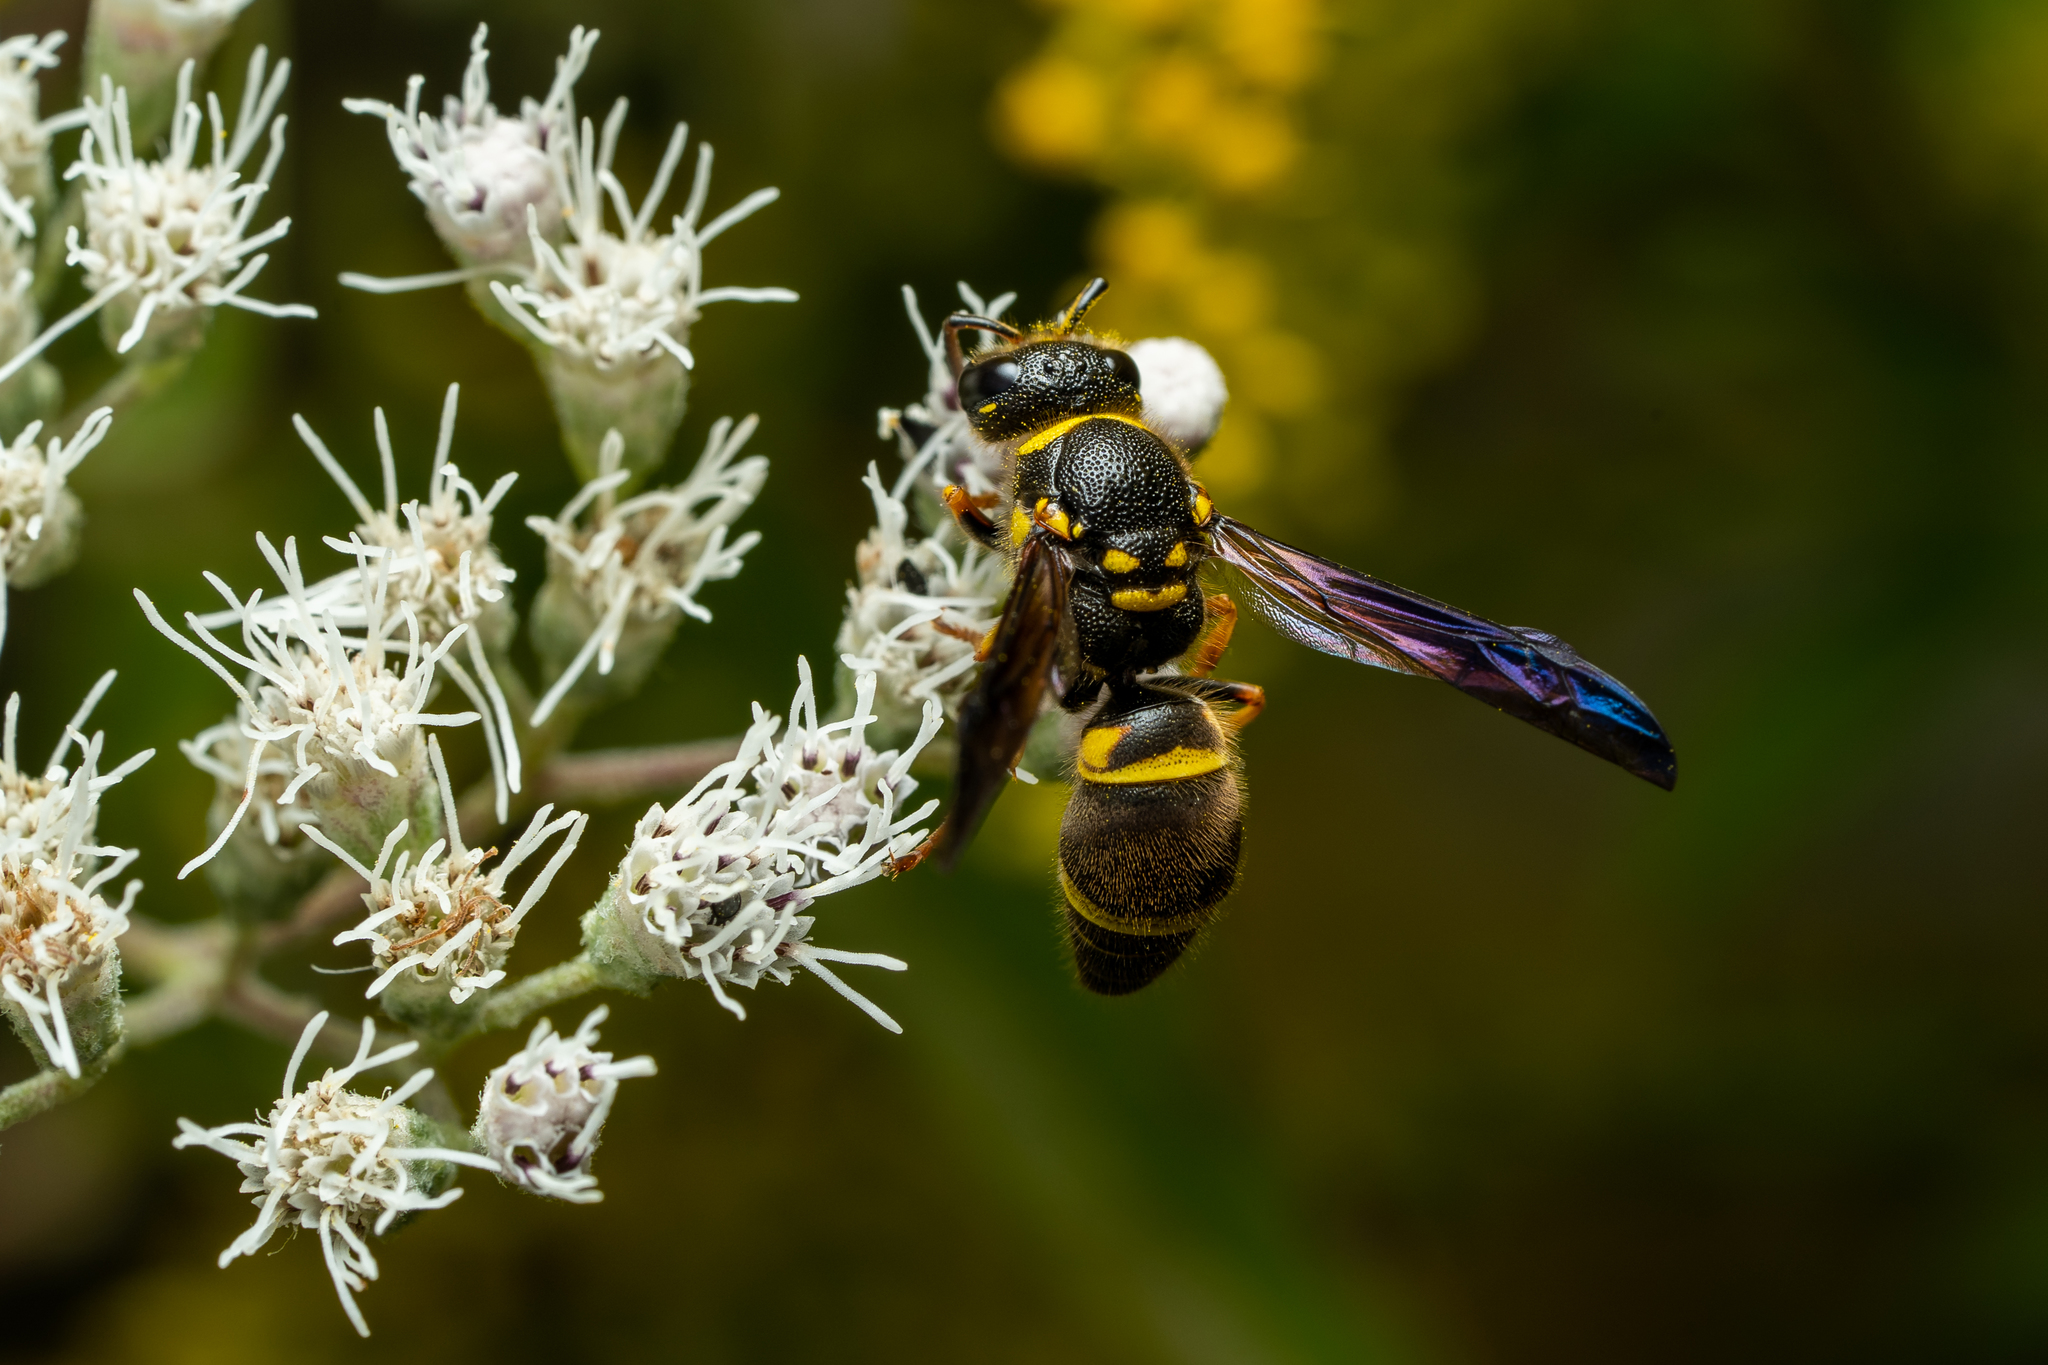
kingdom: Animalia
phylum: Arthropoda
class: Insecta
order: Hymenoptera
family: Vespidae
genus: Ancistrocerus
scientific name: Ancistrocerus campestris
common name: Smiling mason wasp
